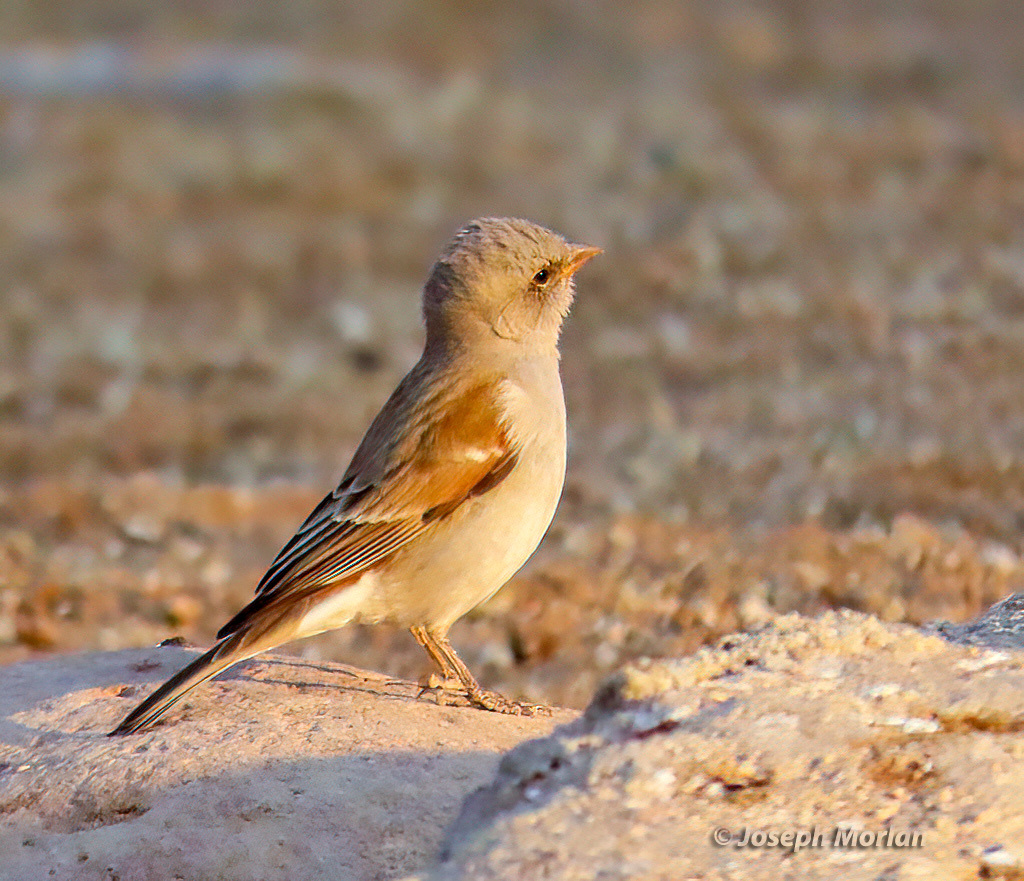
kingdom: Animalia
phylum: Chordata
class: Aves
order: Passeriformes
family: Passeridae
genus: Passer
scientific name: Passer diffusus
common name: Southern grey-headed sparrow
